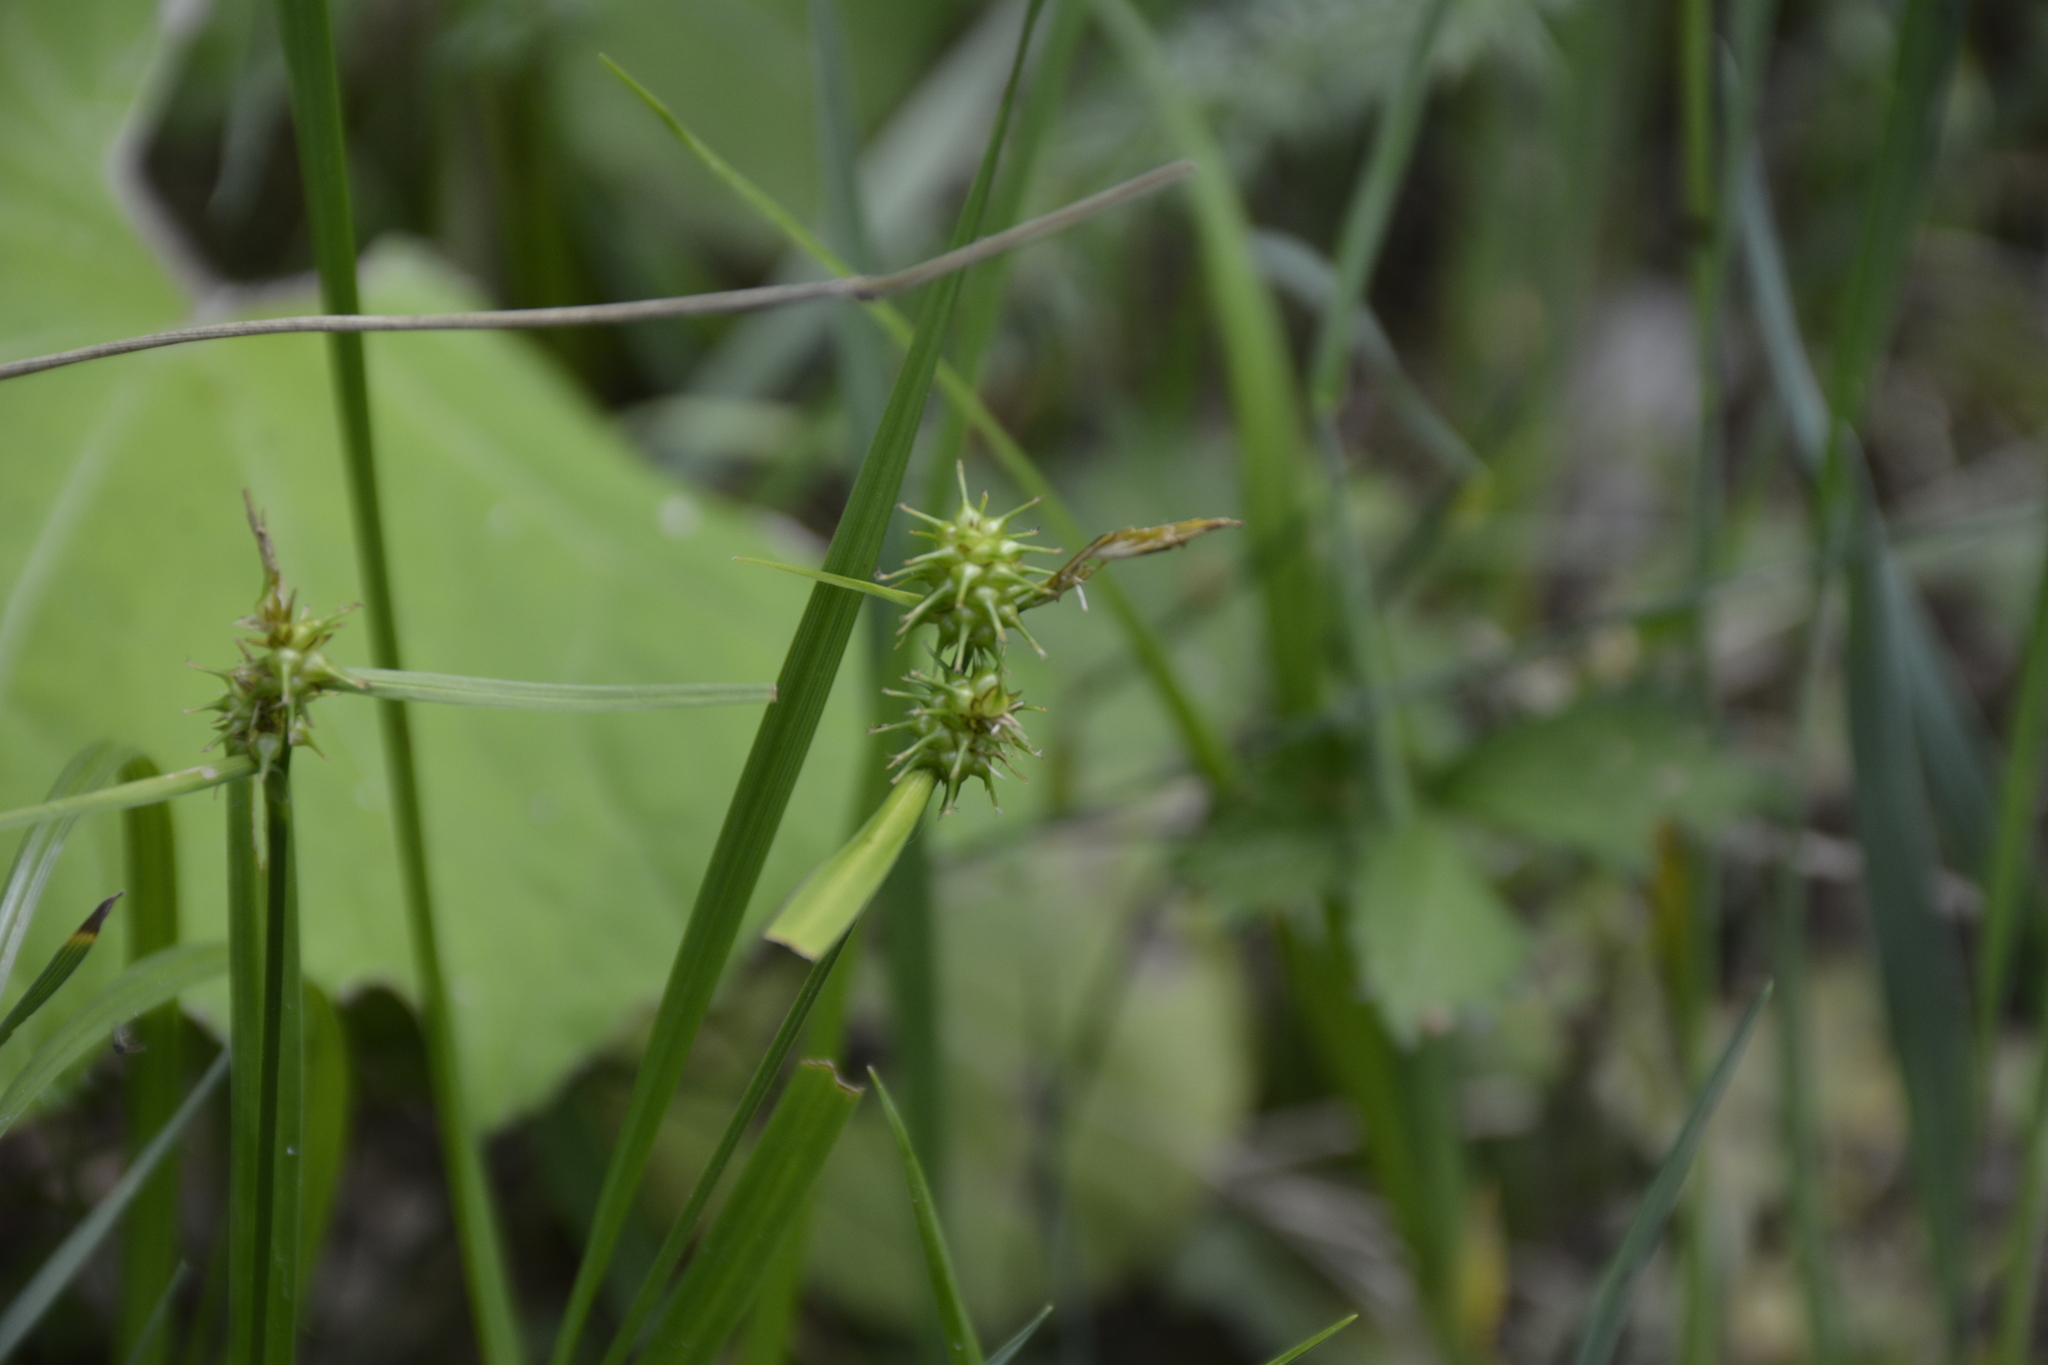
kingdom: Plantae
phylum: Tracheophyta
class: Liliopsida
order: Poales
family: Cyperaceae
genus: Carex
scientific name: Carex flava
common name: Large yellow-sedge
